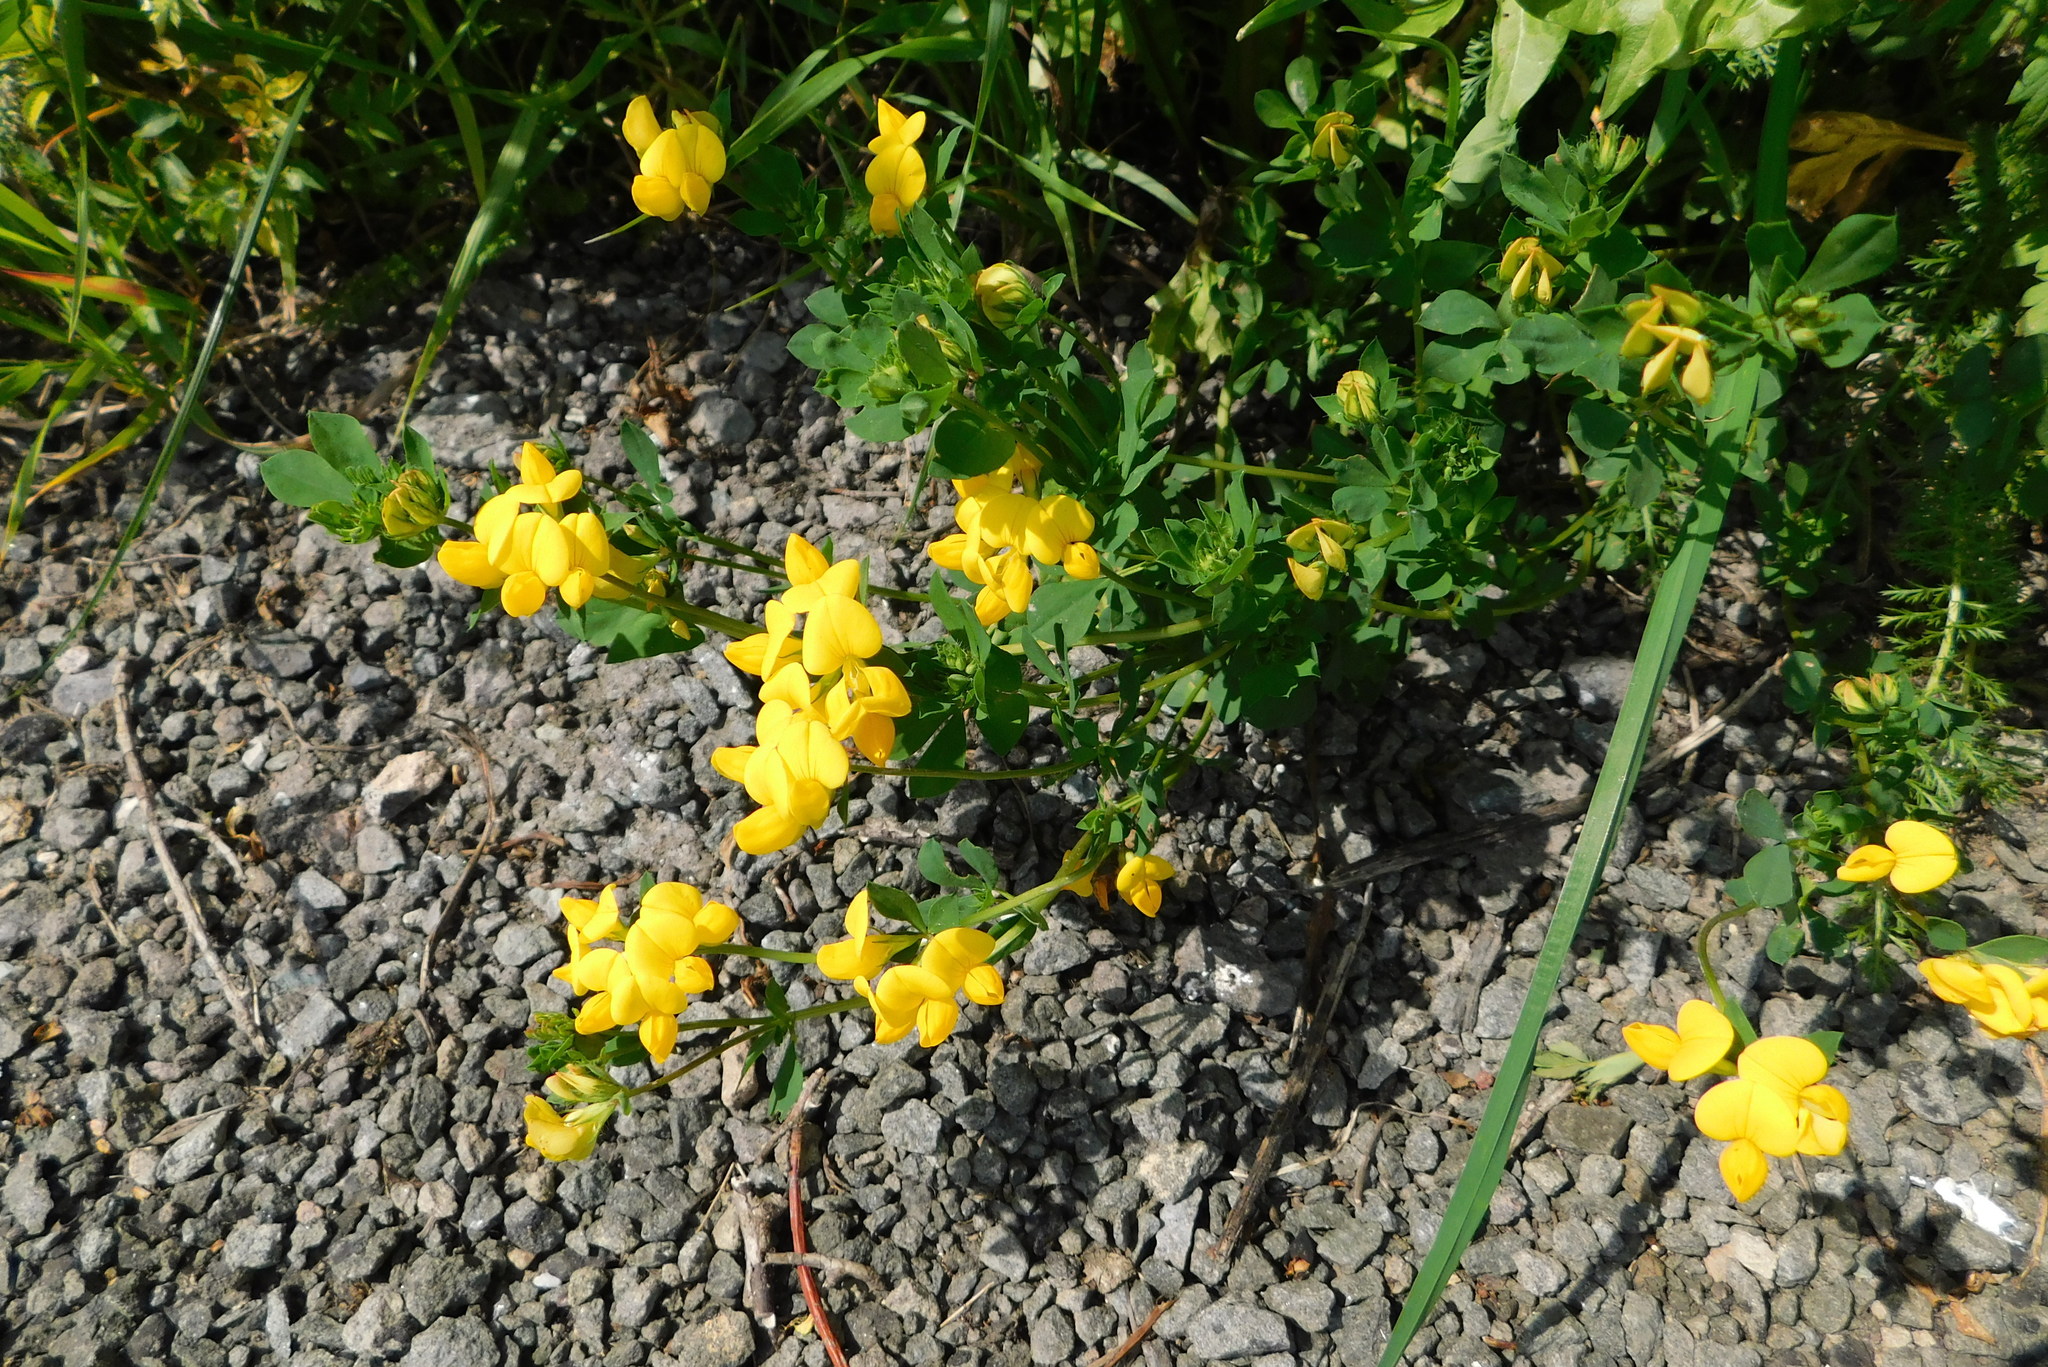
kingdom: Plantae
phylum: Tracheophyta
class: Magnoliopsida
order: Fabales
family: Fabaceae
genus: Lotus
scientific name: Lotus corniculatus
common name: Common bird's-foot-trefoil
